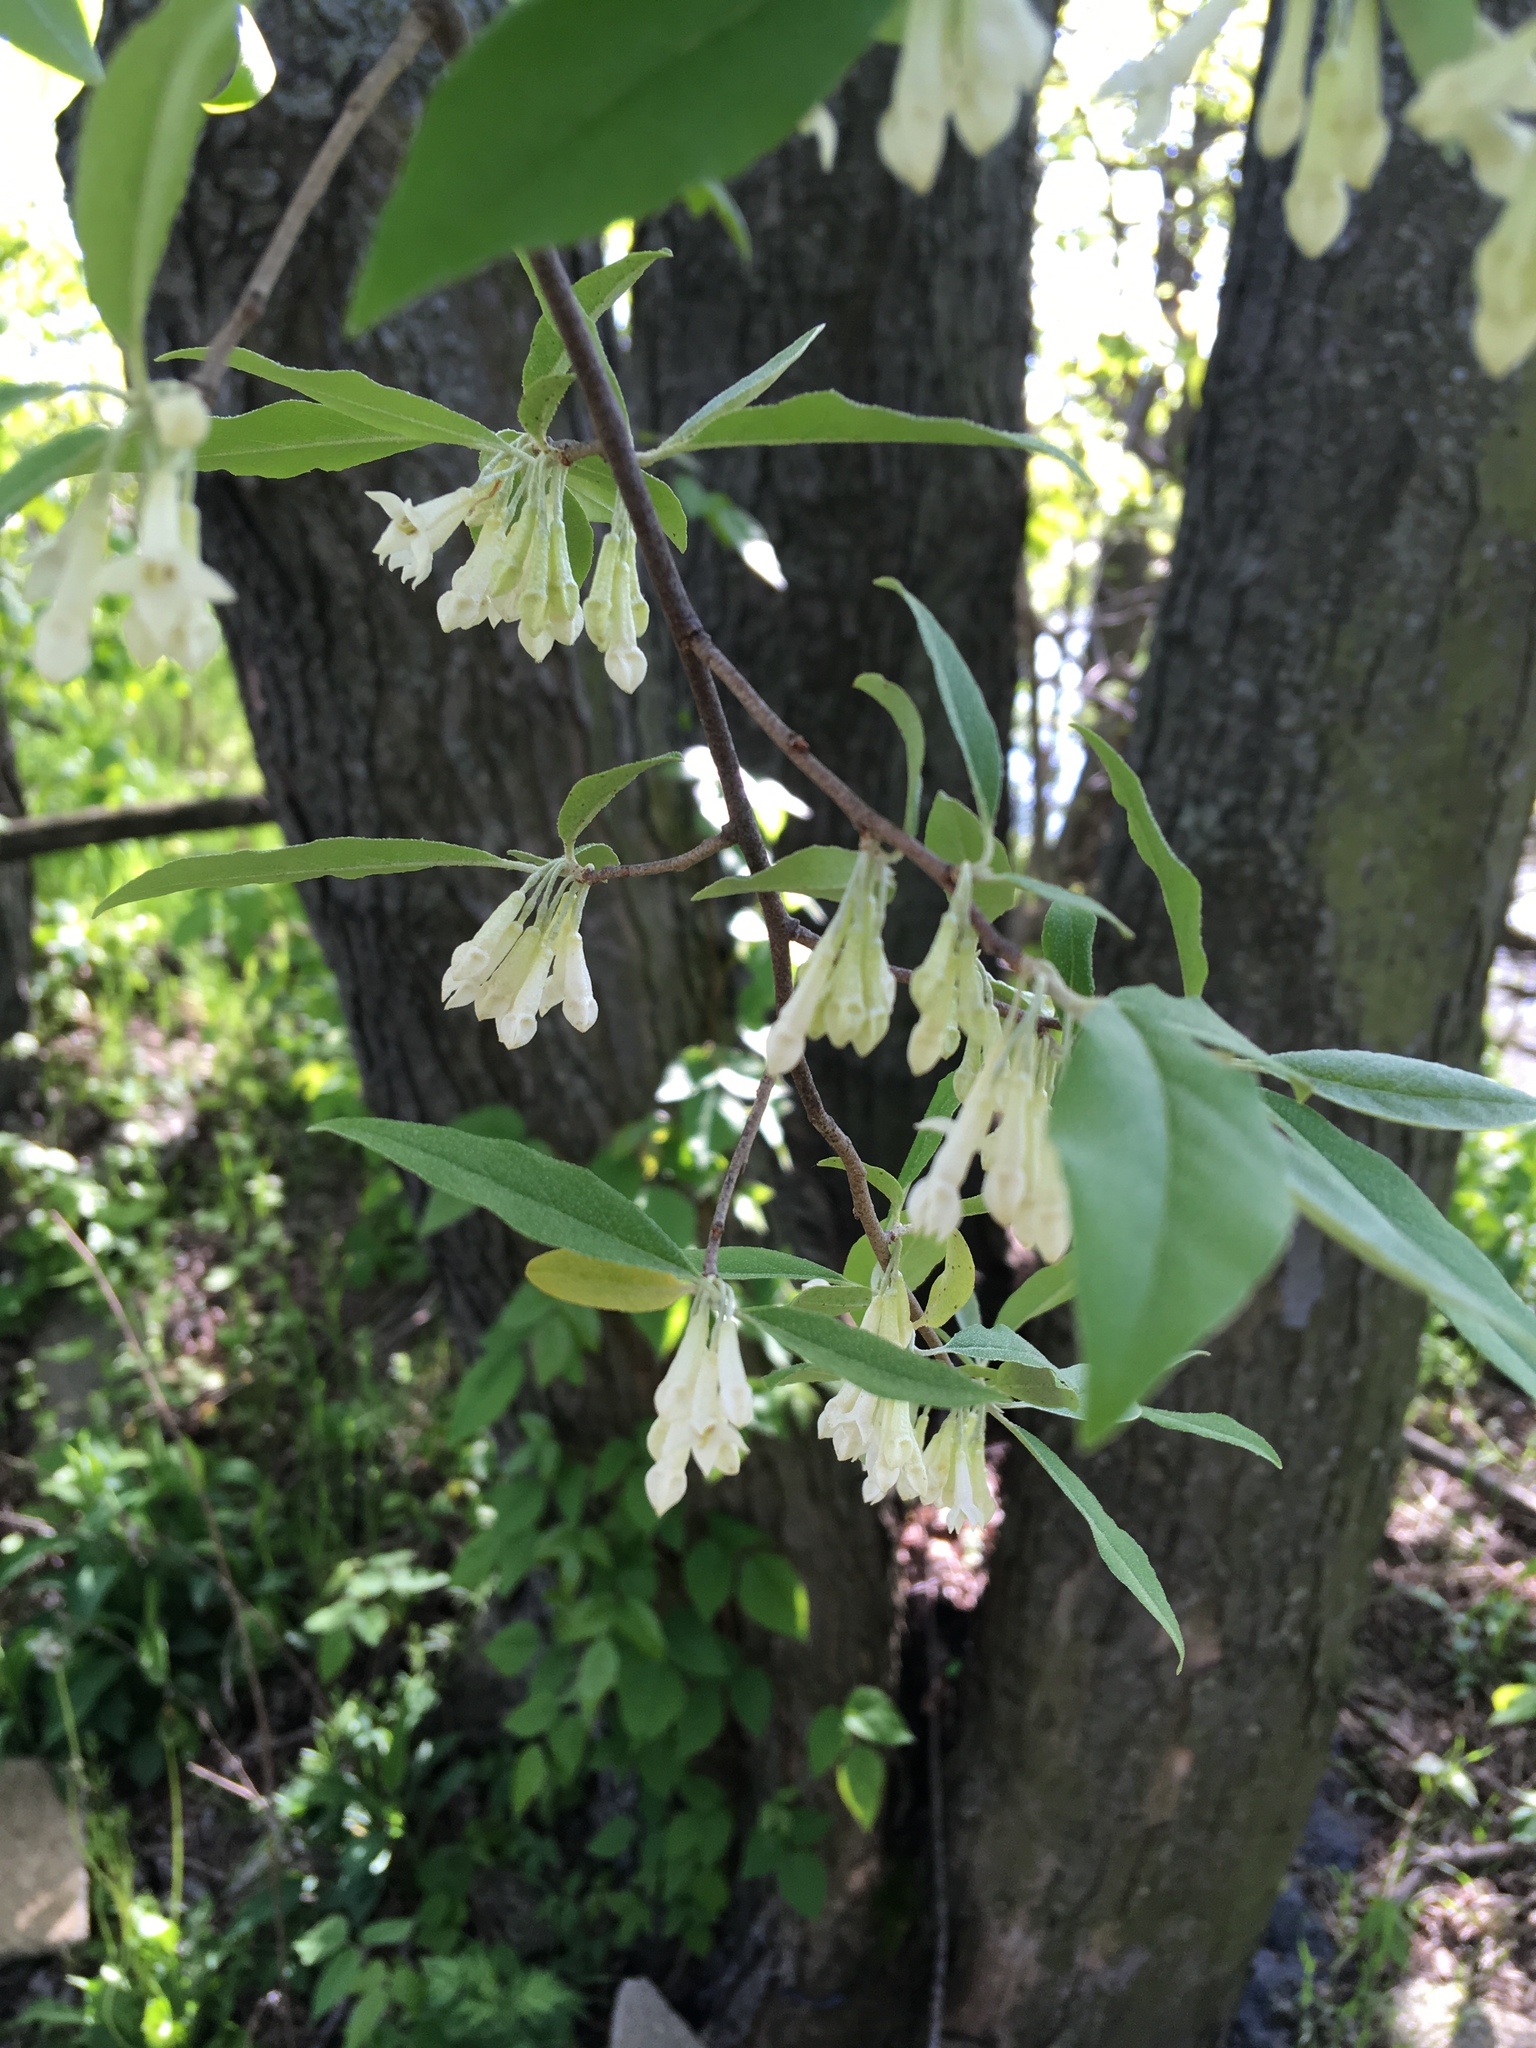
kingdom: Plantae
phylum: Tracheophyta
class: Magnoliopsida
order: Rosales
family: Elaeagnaceae
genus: Elaeagnus
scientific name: Elaeagnus umbellata
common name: Autumn olive
